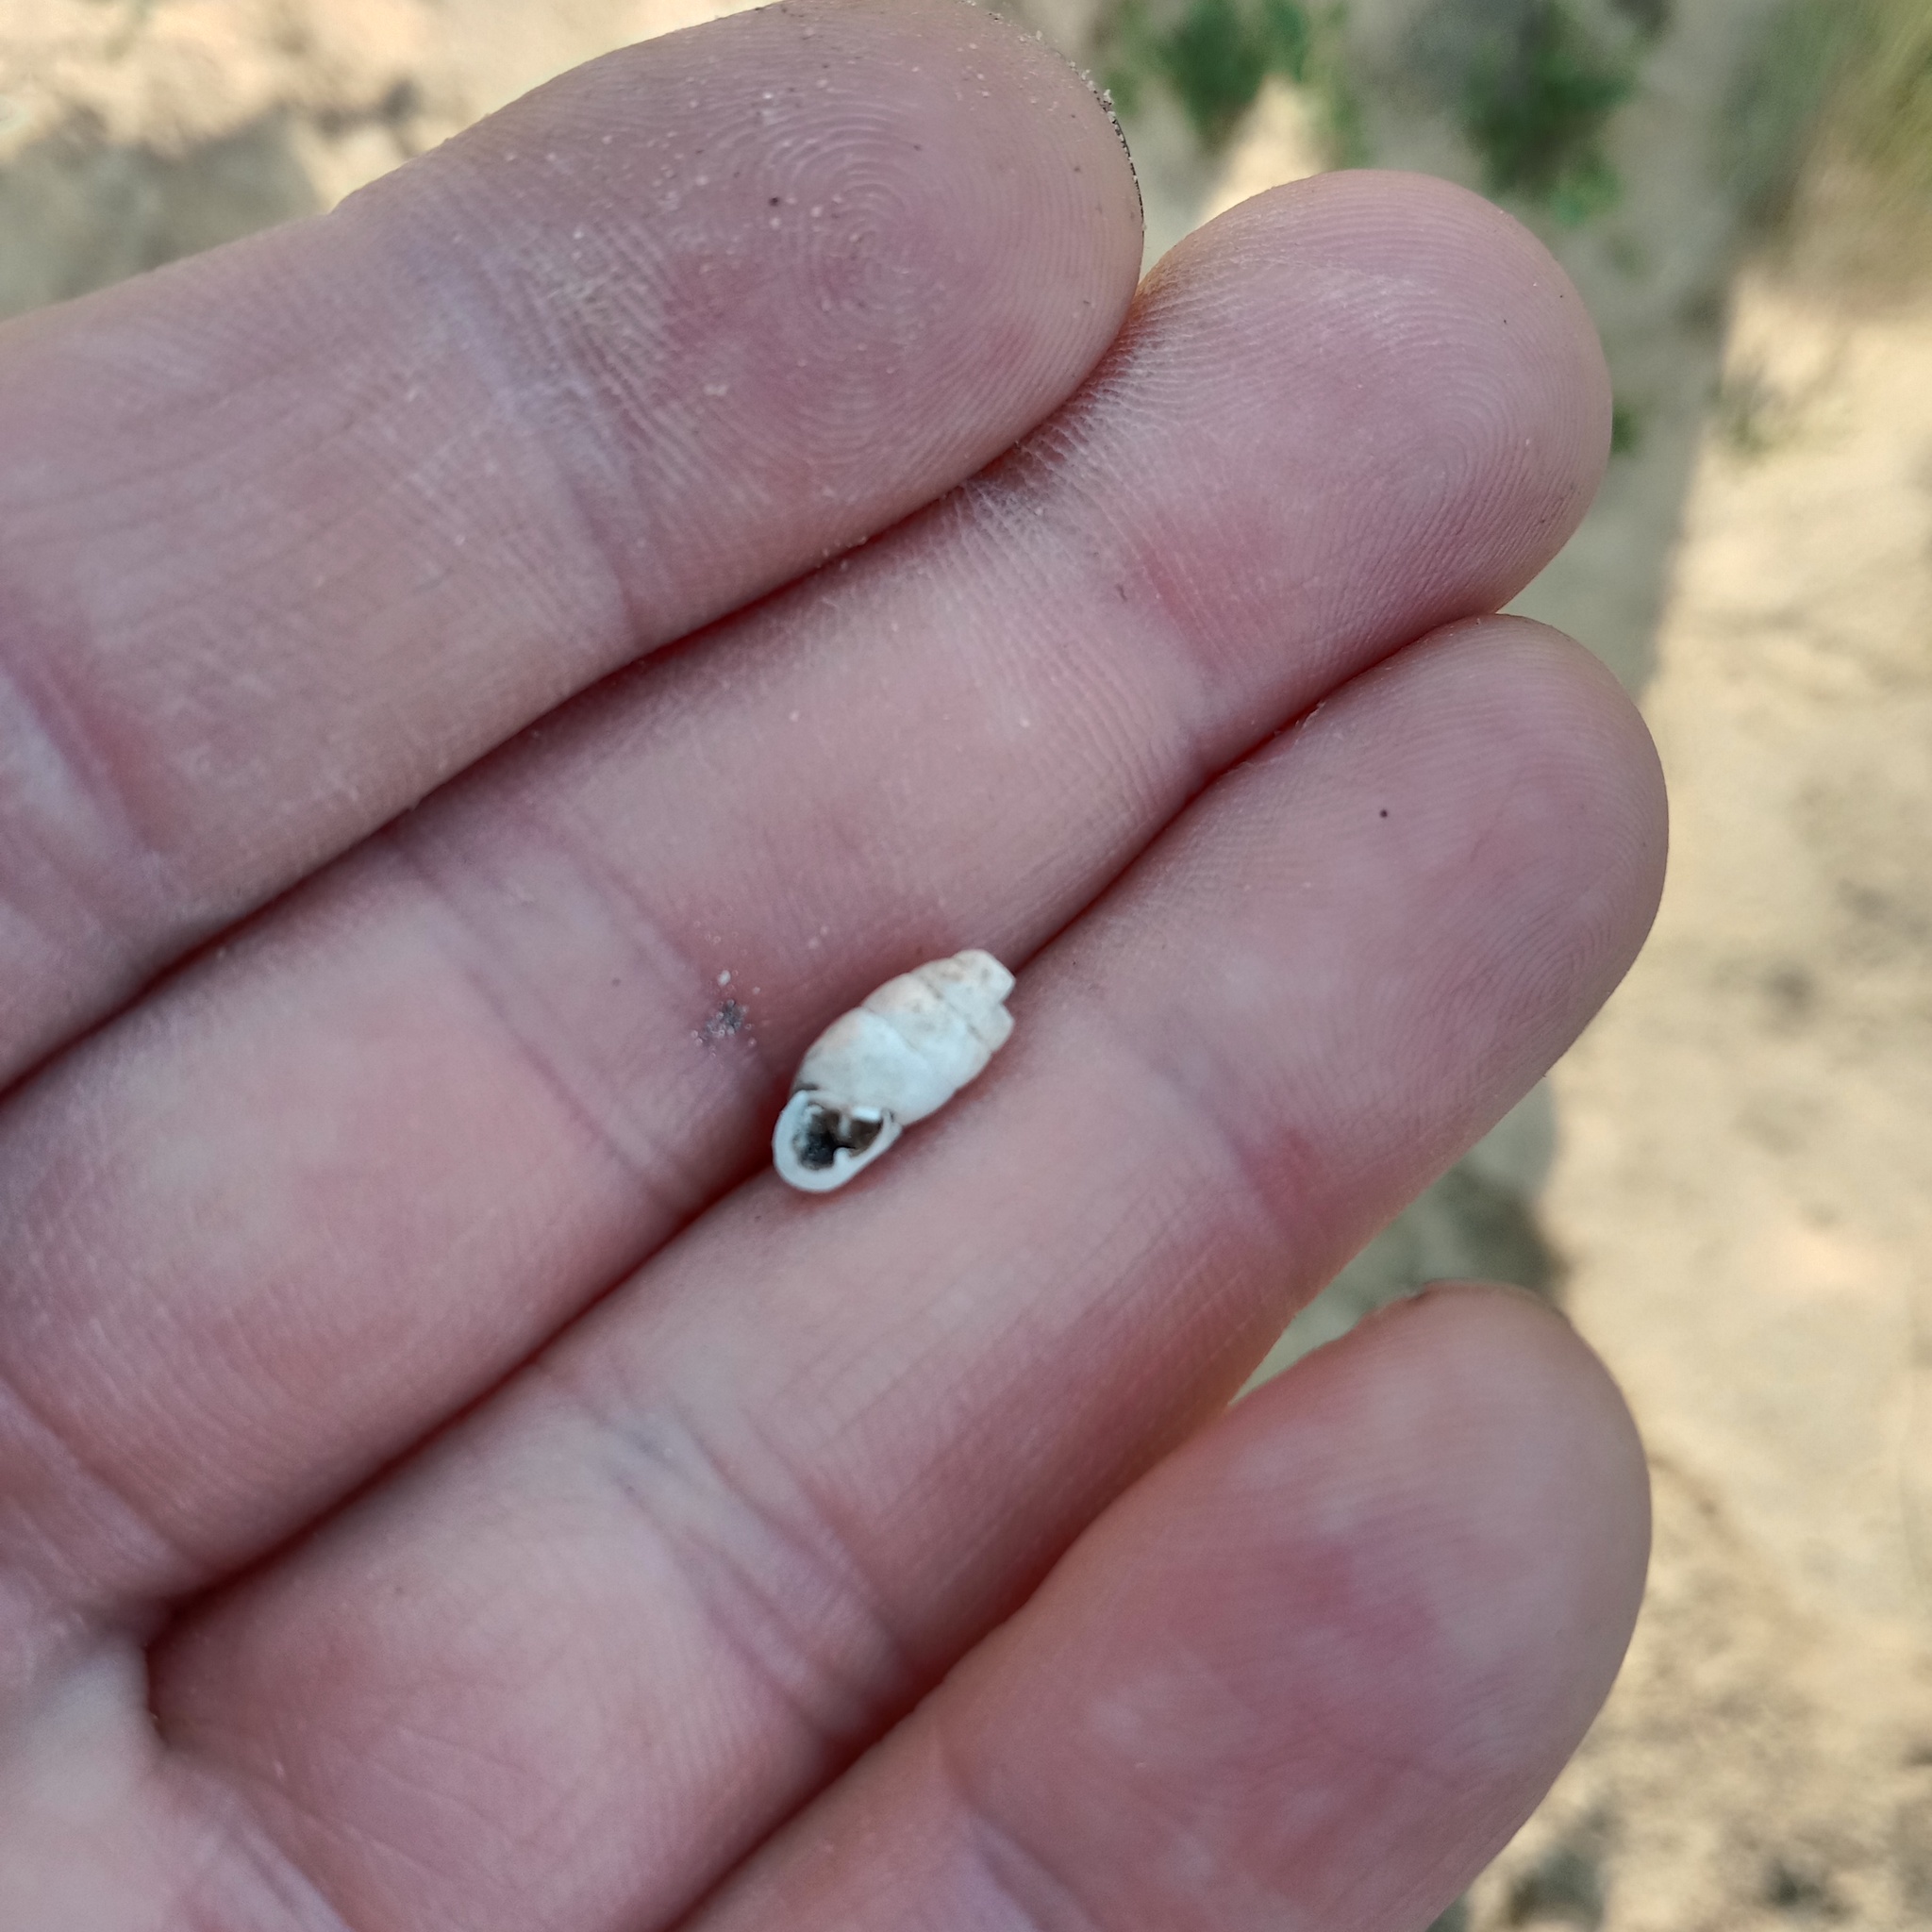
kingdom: Animalia
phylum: Mollusca
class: Gastropoda
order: Stylommatophora
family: Enidae
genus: Chondrula
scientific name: Chondrula tridens
